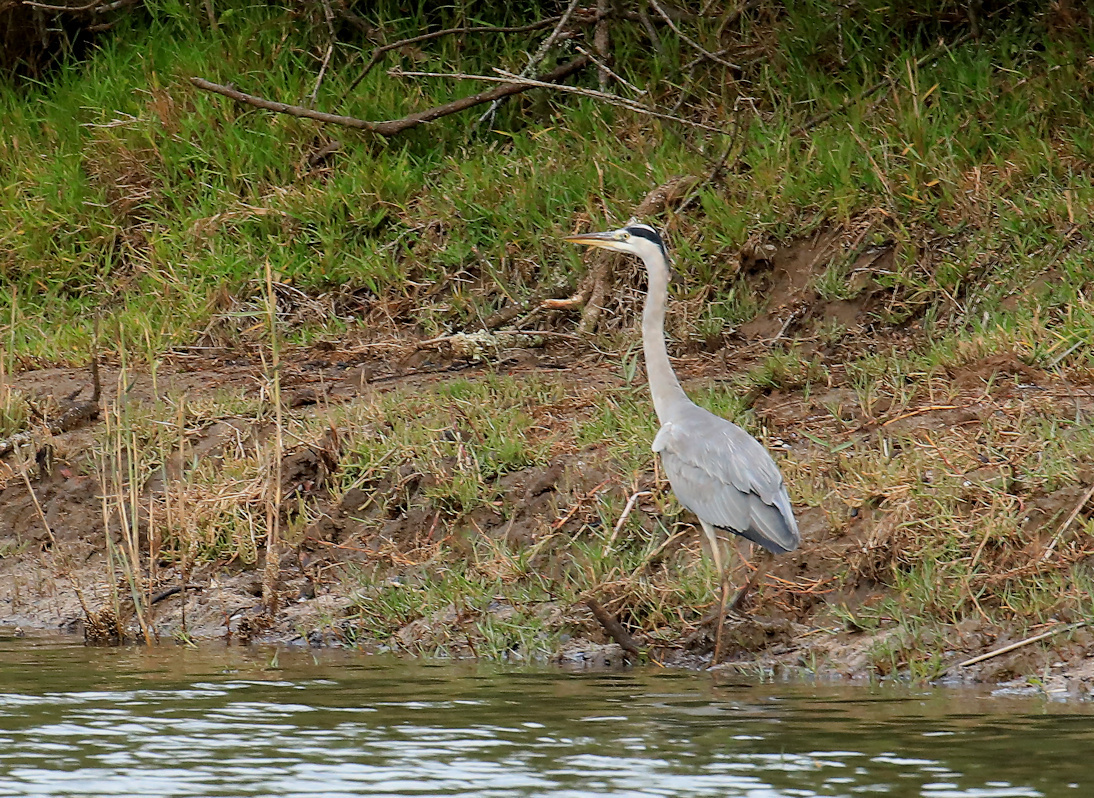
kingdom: Animalia
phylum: Chordata
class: Aves
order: Pelecaniformes
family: Ardeidae
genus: Ardea
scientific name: Ardea cinerea
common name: Grey heron
